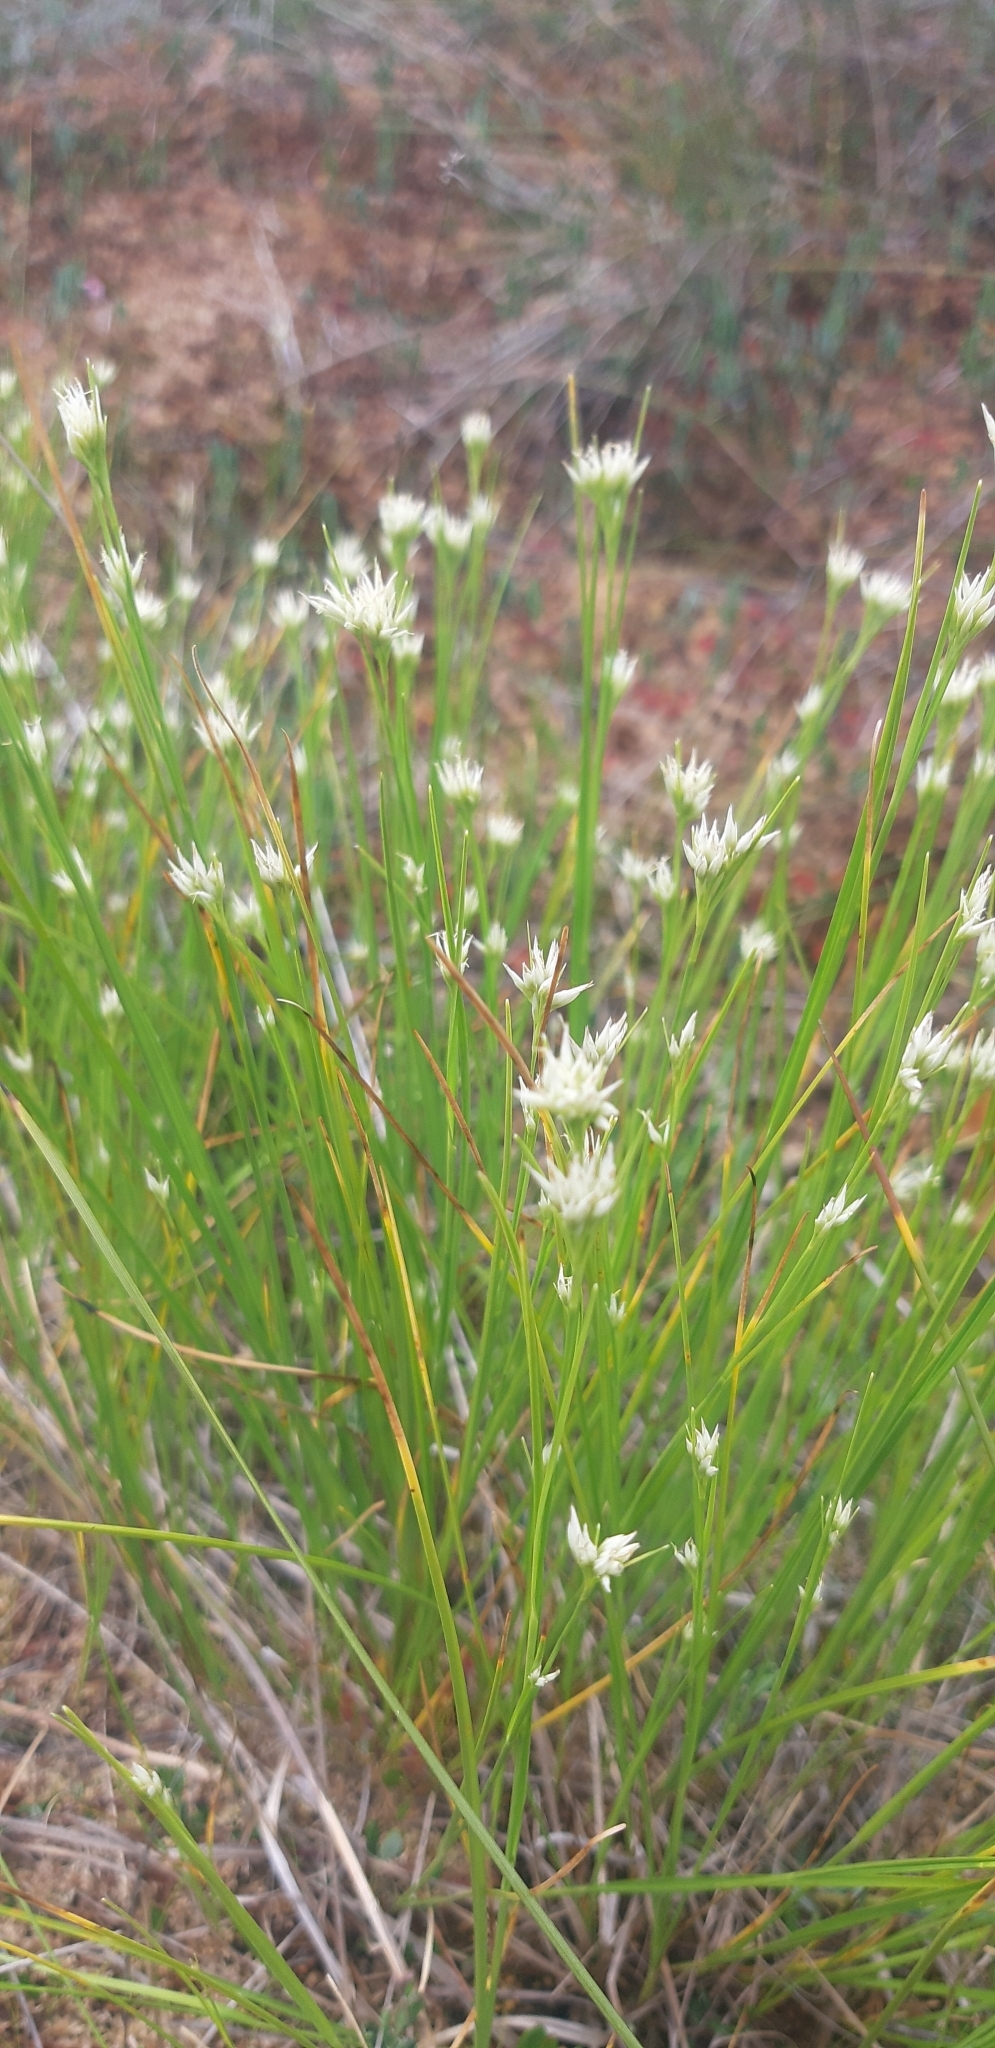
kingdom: Plantae
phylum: Tracheophyta
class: Liliopsida
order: Poales
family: Cyperaceae
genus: Rhynchospora
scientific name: Rhynchospora alba
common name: White beak-sedge
